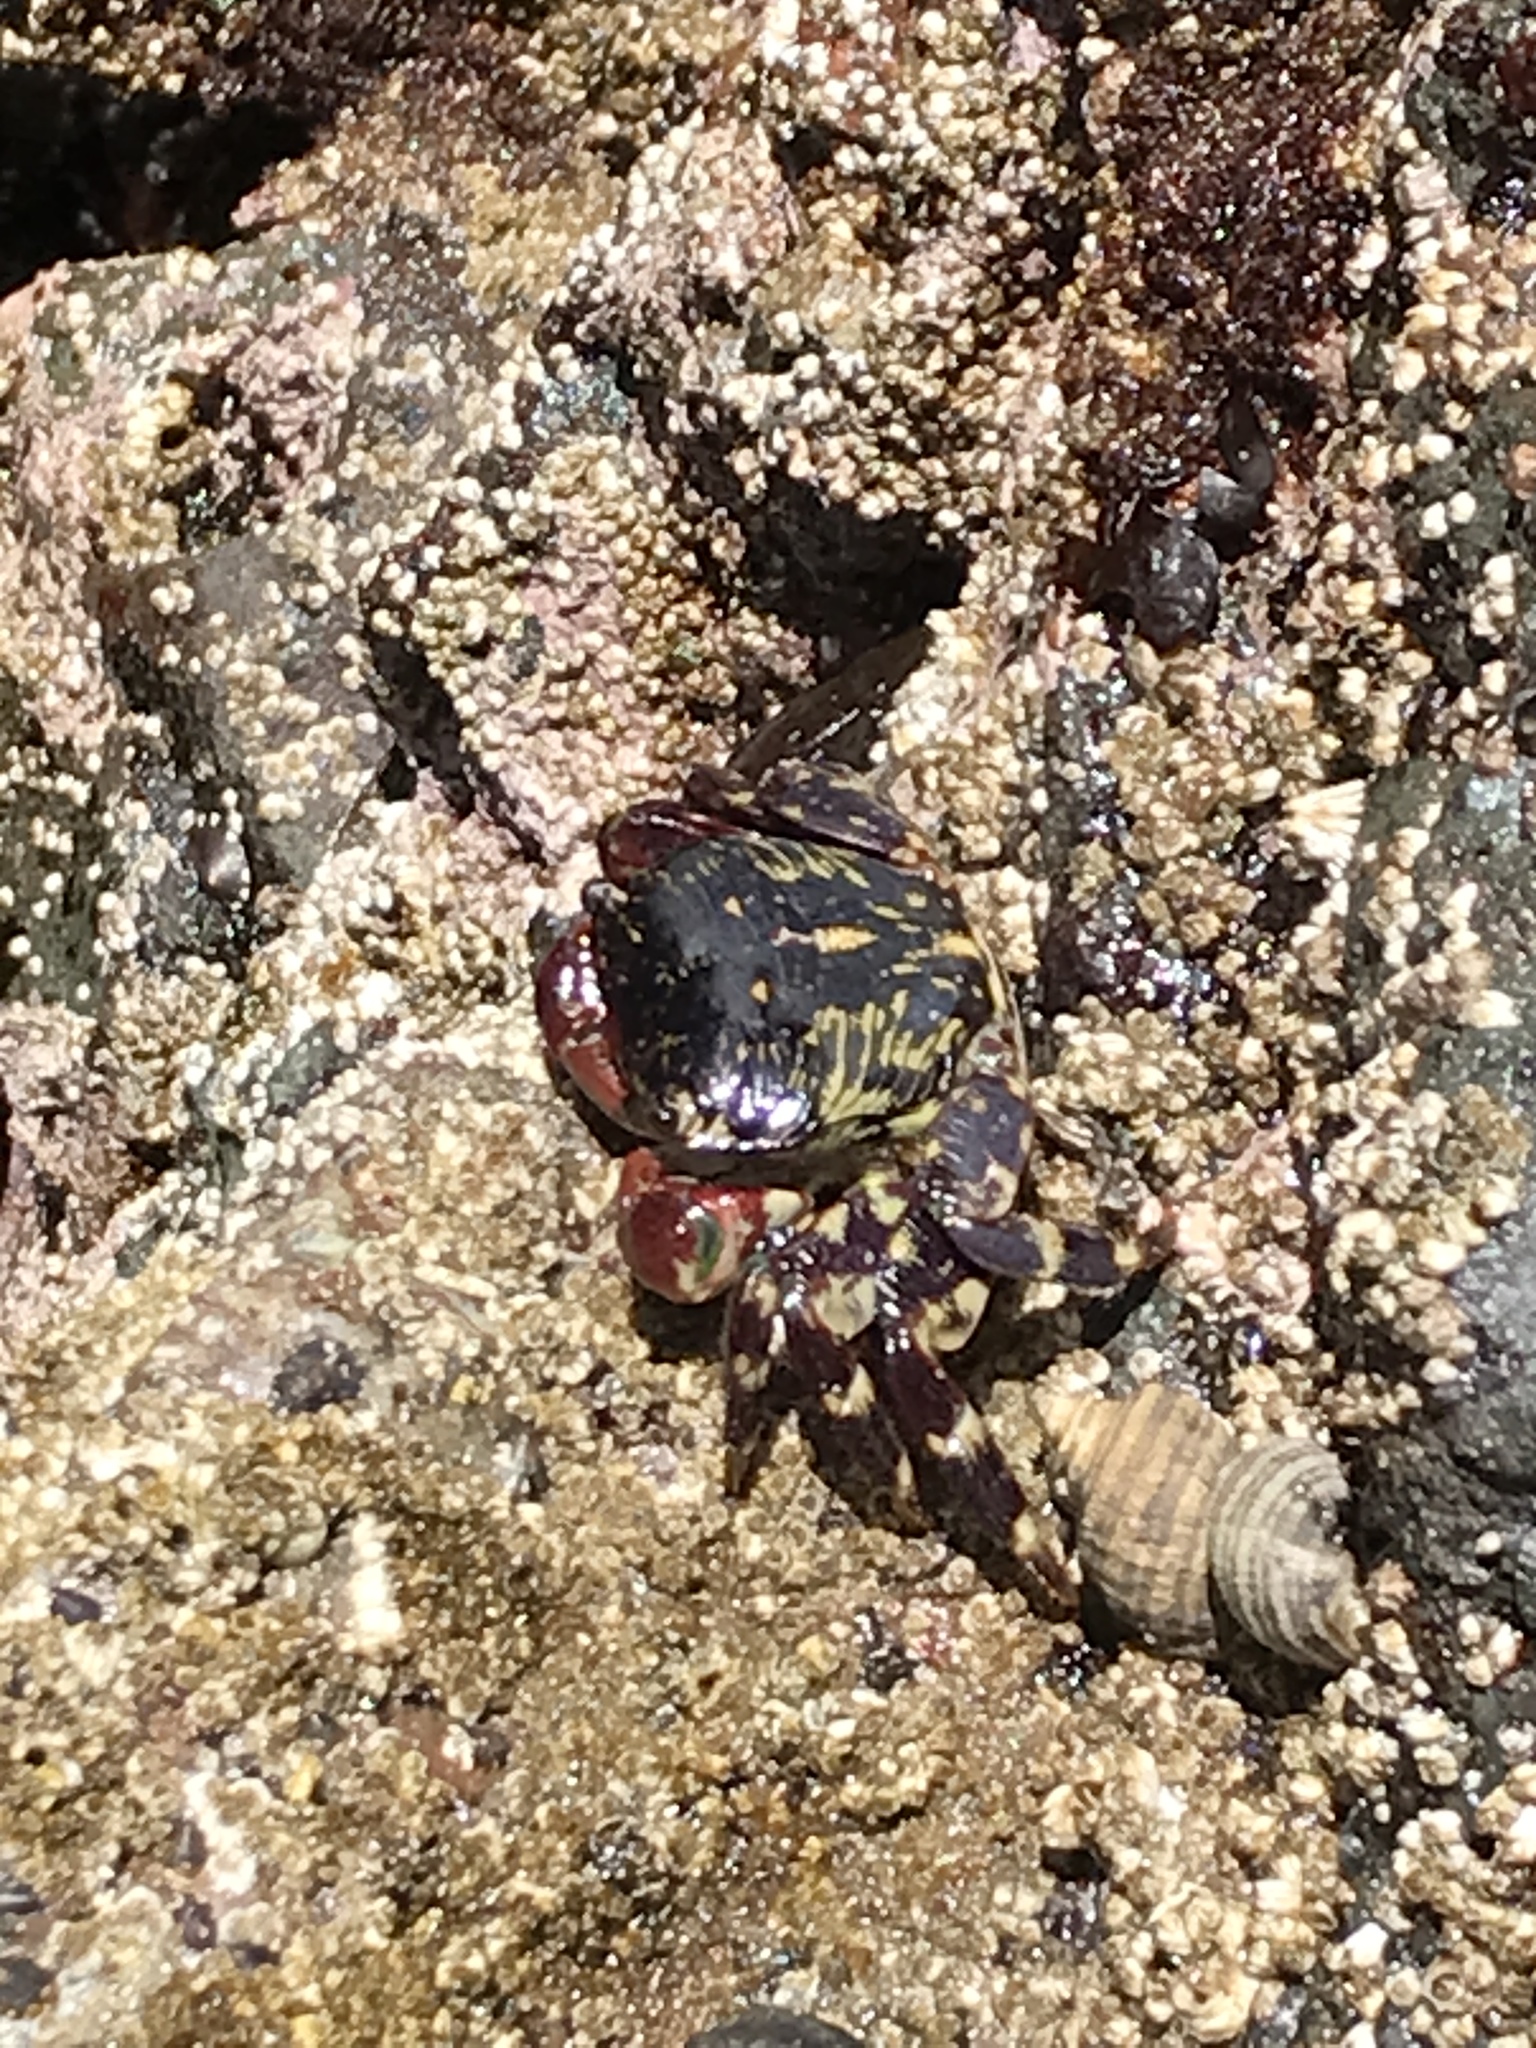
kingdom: Animalia
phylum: Arthropoda
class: Malacostraca
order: Decapoda
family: Grapsidae
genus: Pachygrapsus
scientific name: Pachygrapsus crassipes
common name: Striped shore crab
